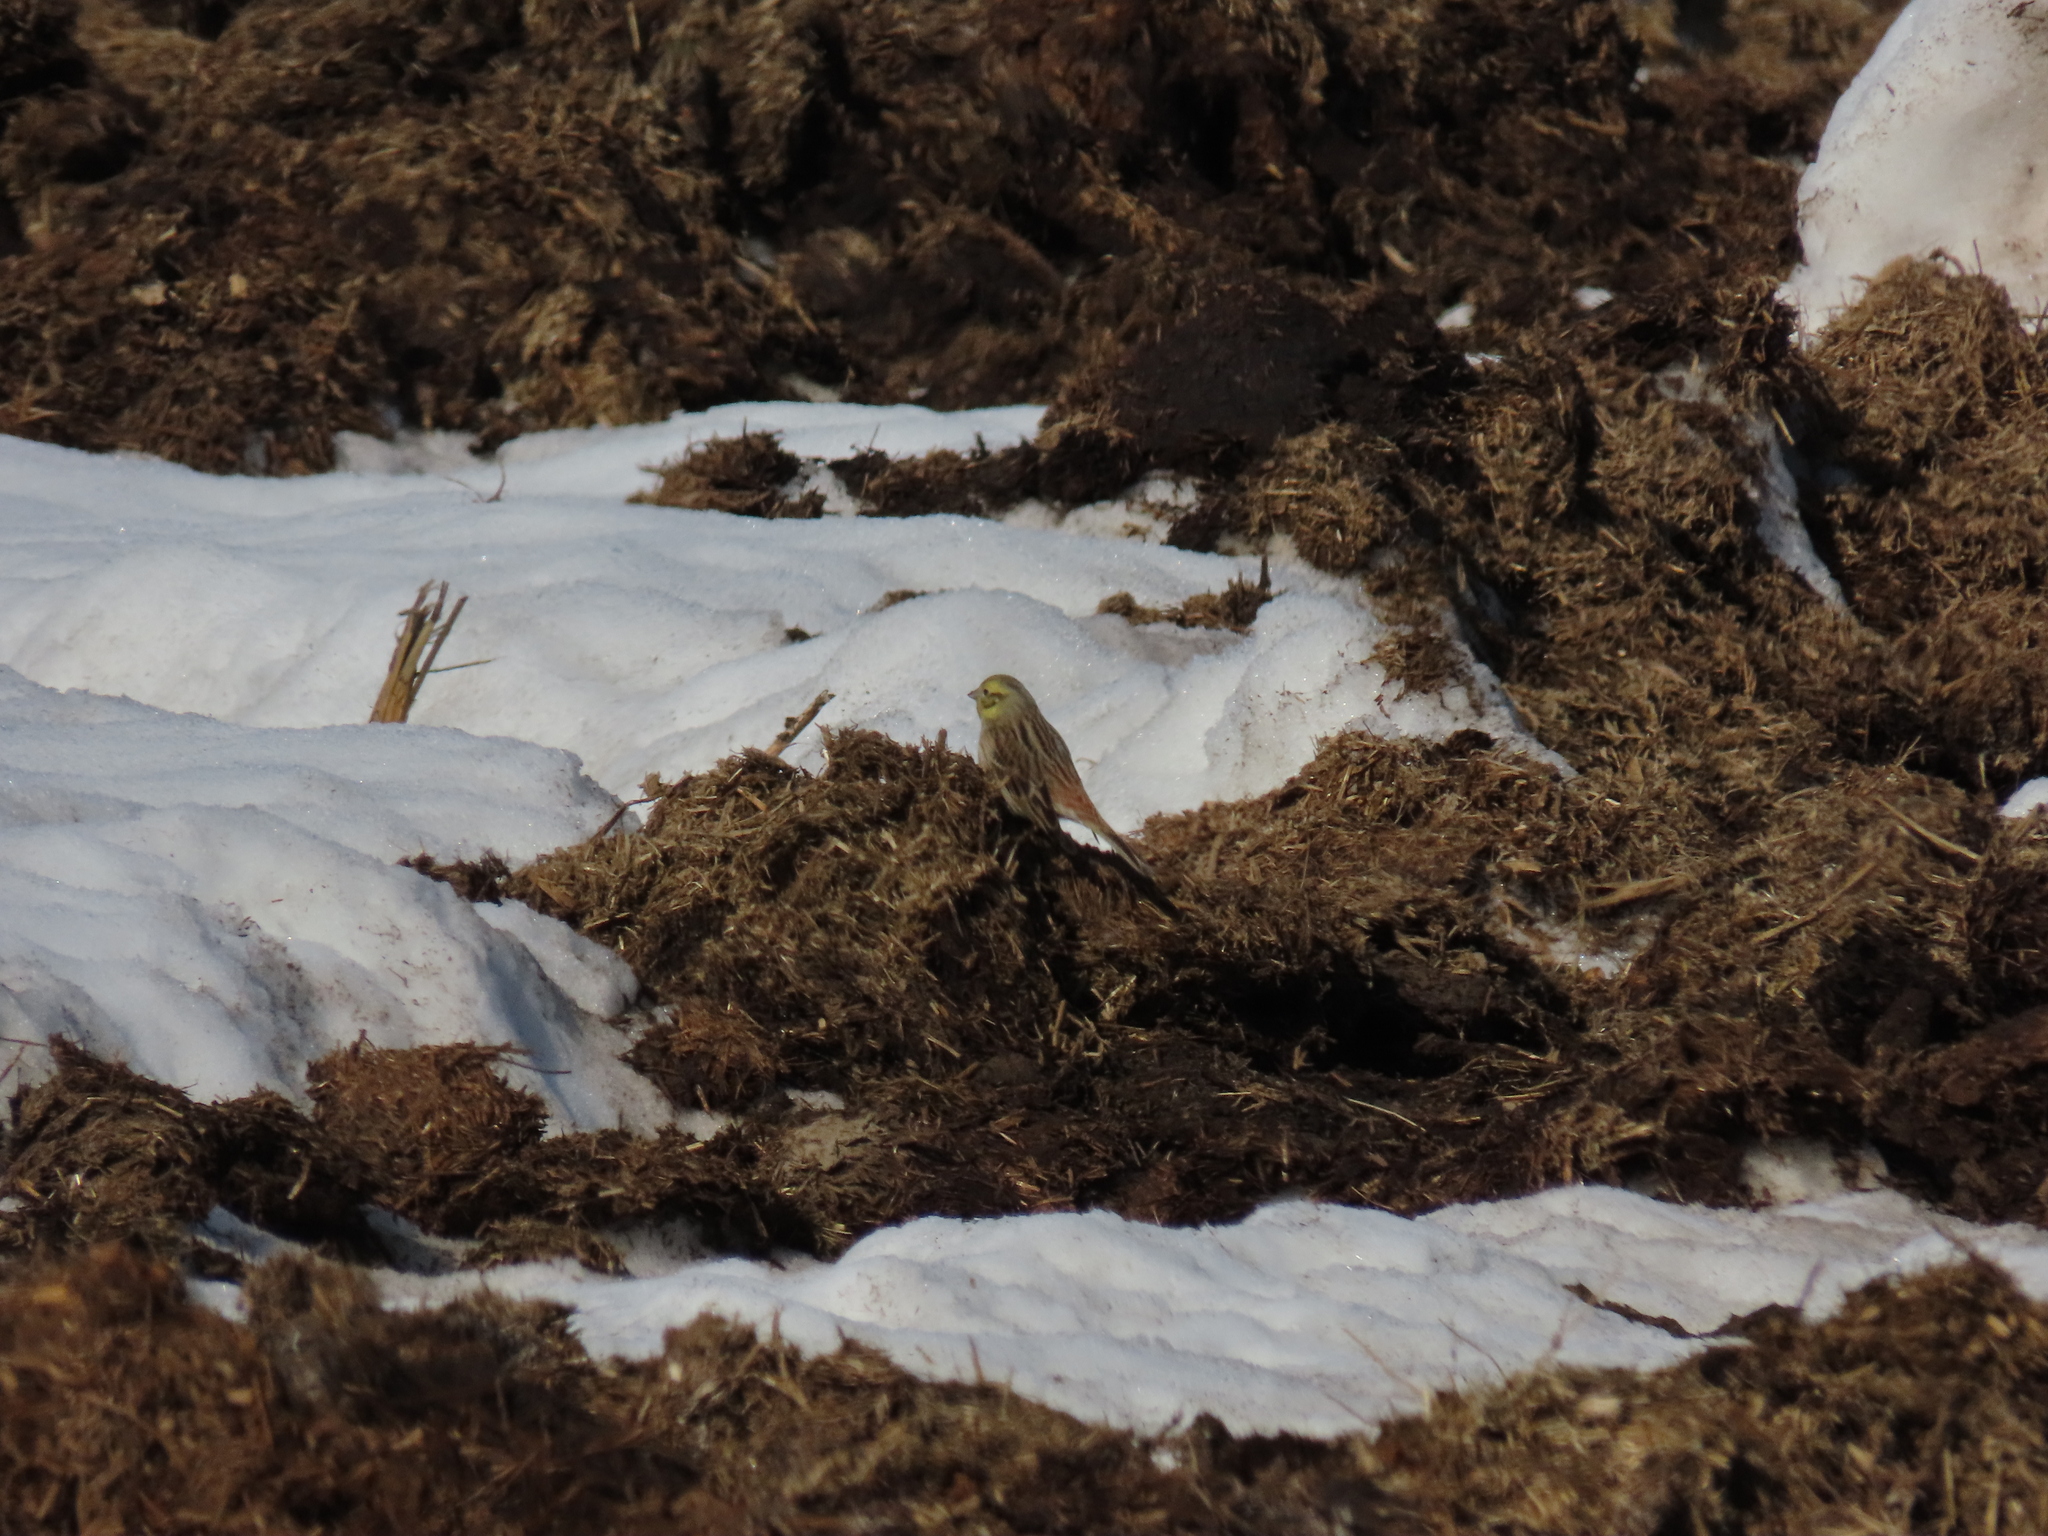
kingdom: Animalia
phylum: Chordata
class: Aves
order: Passeriformes
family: Emberizidae
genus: Emberiza
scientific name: Emberiza citrinella
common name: Yellowhammer
